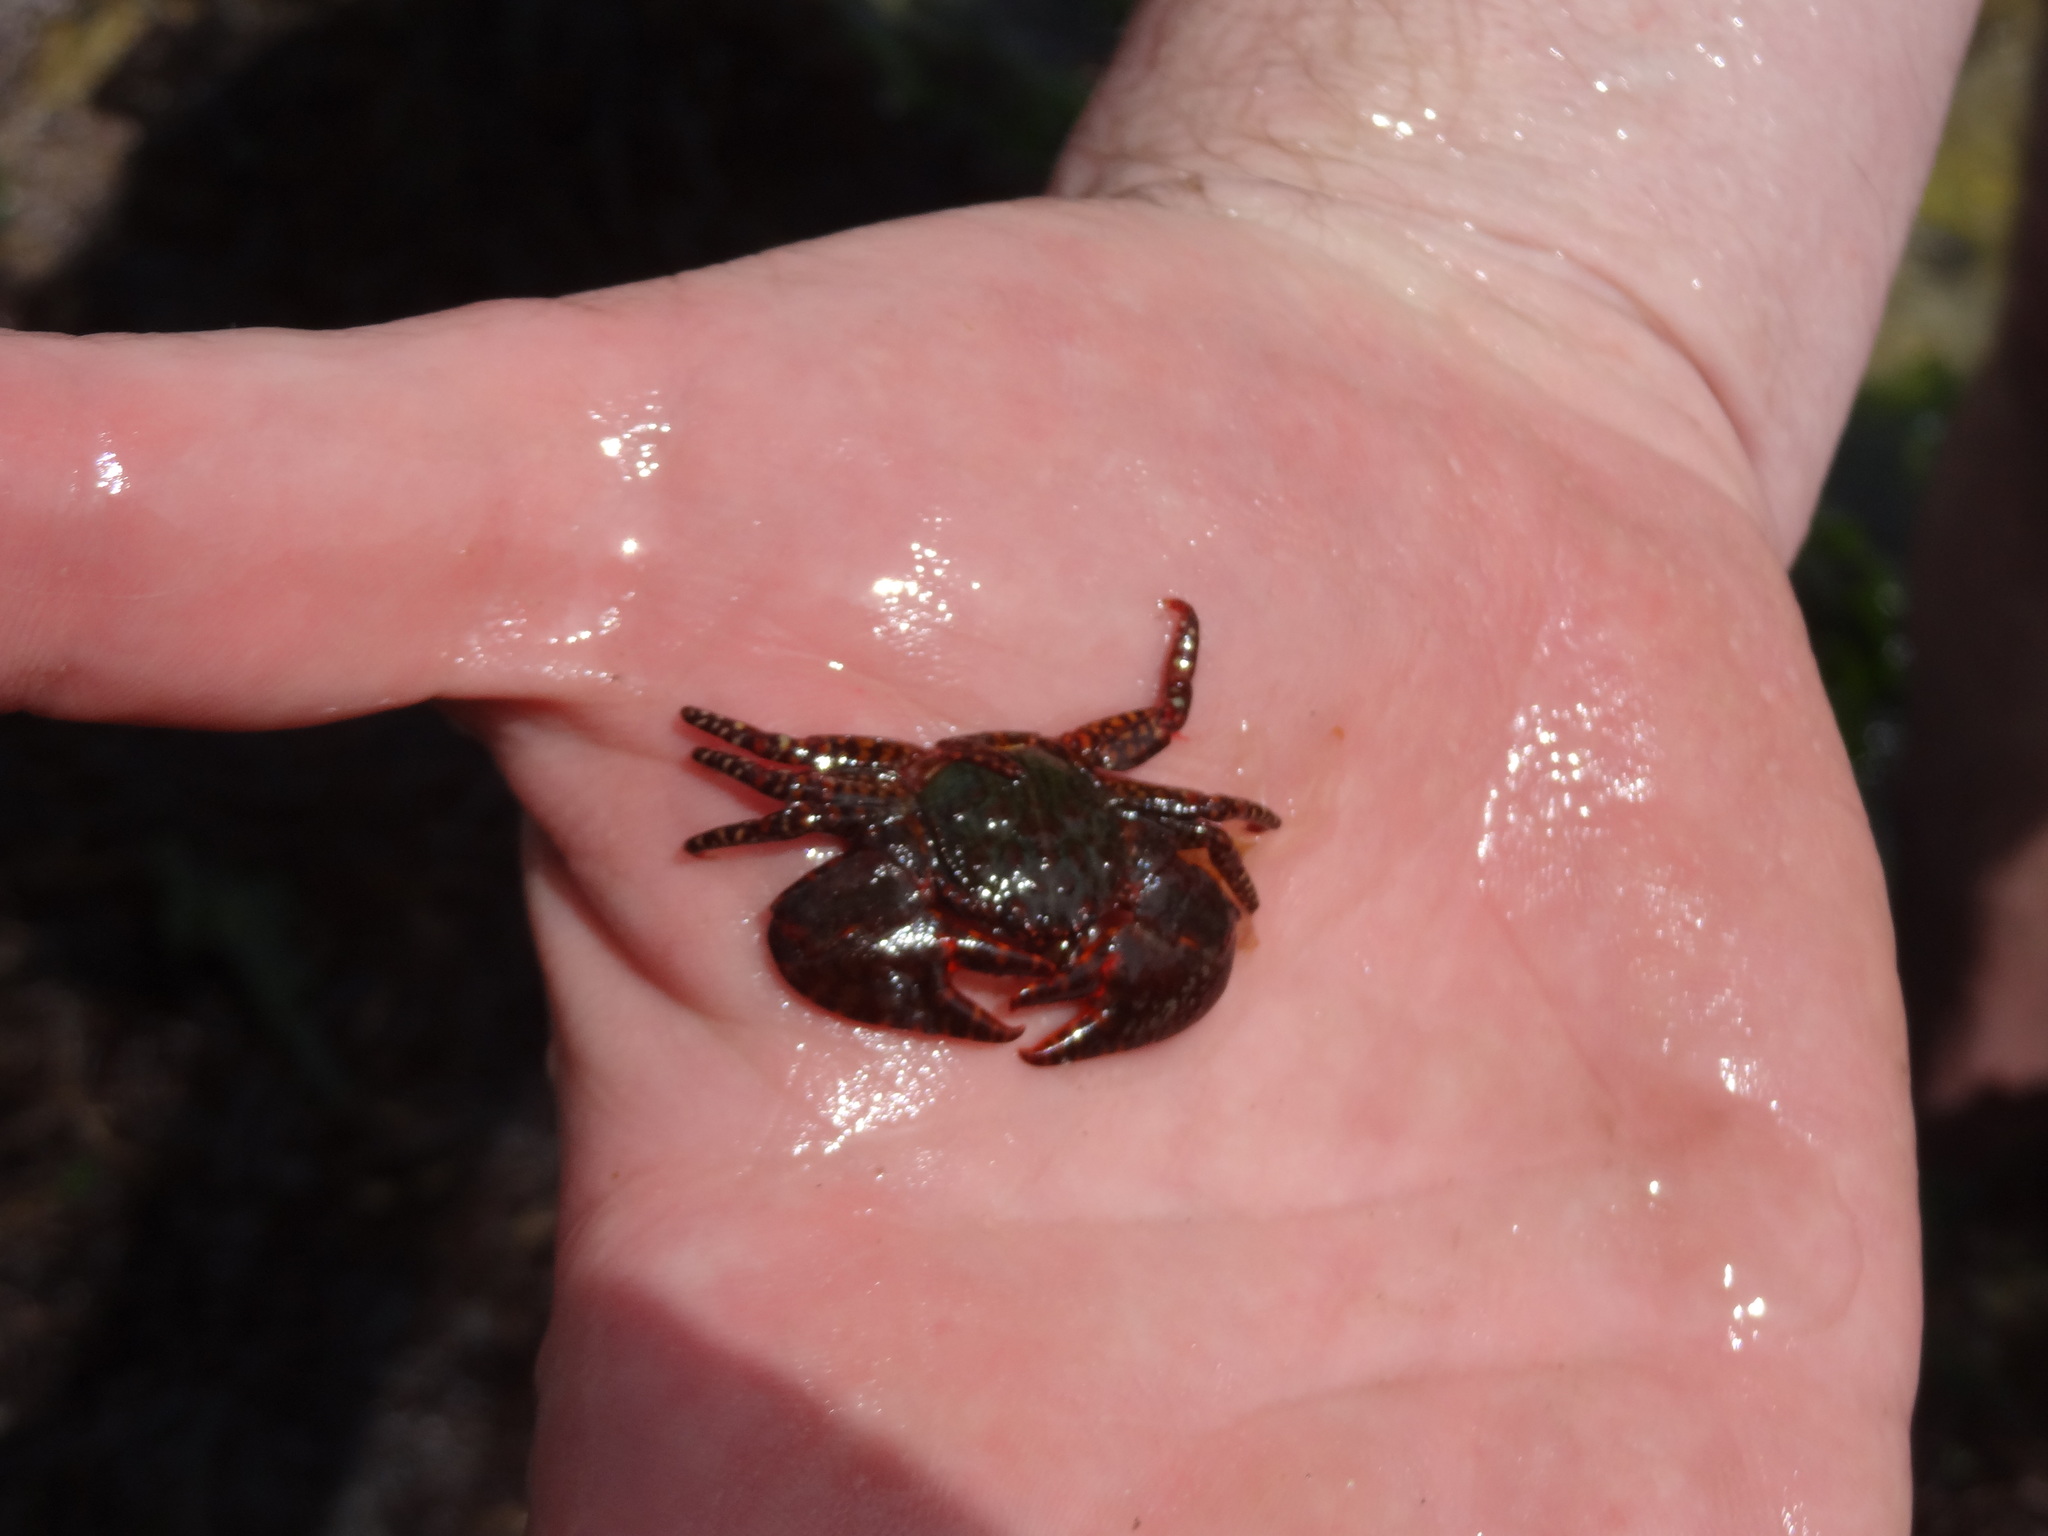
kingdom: Animalia
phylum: Arthropoda
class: Malacostraca
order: Decapoda
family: Porcellanidae
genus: Petrolisthes
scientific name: Petrolisthes spinifrons
